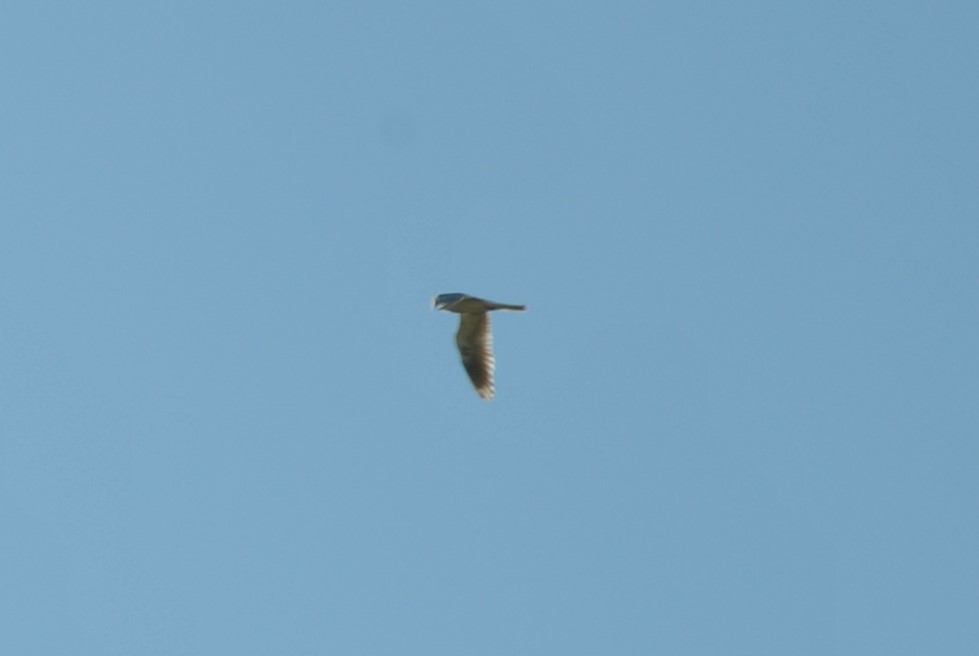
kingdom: Animalia
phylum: Chordata
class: Aves
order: Accipitriformes
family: Accipitridae
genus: Elanus
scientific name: Elanus leucurus
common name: White-tailed kite
